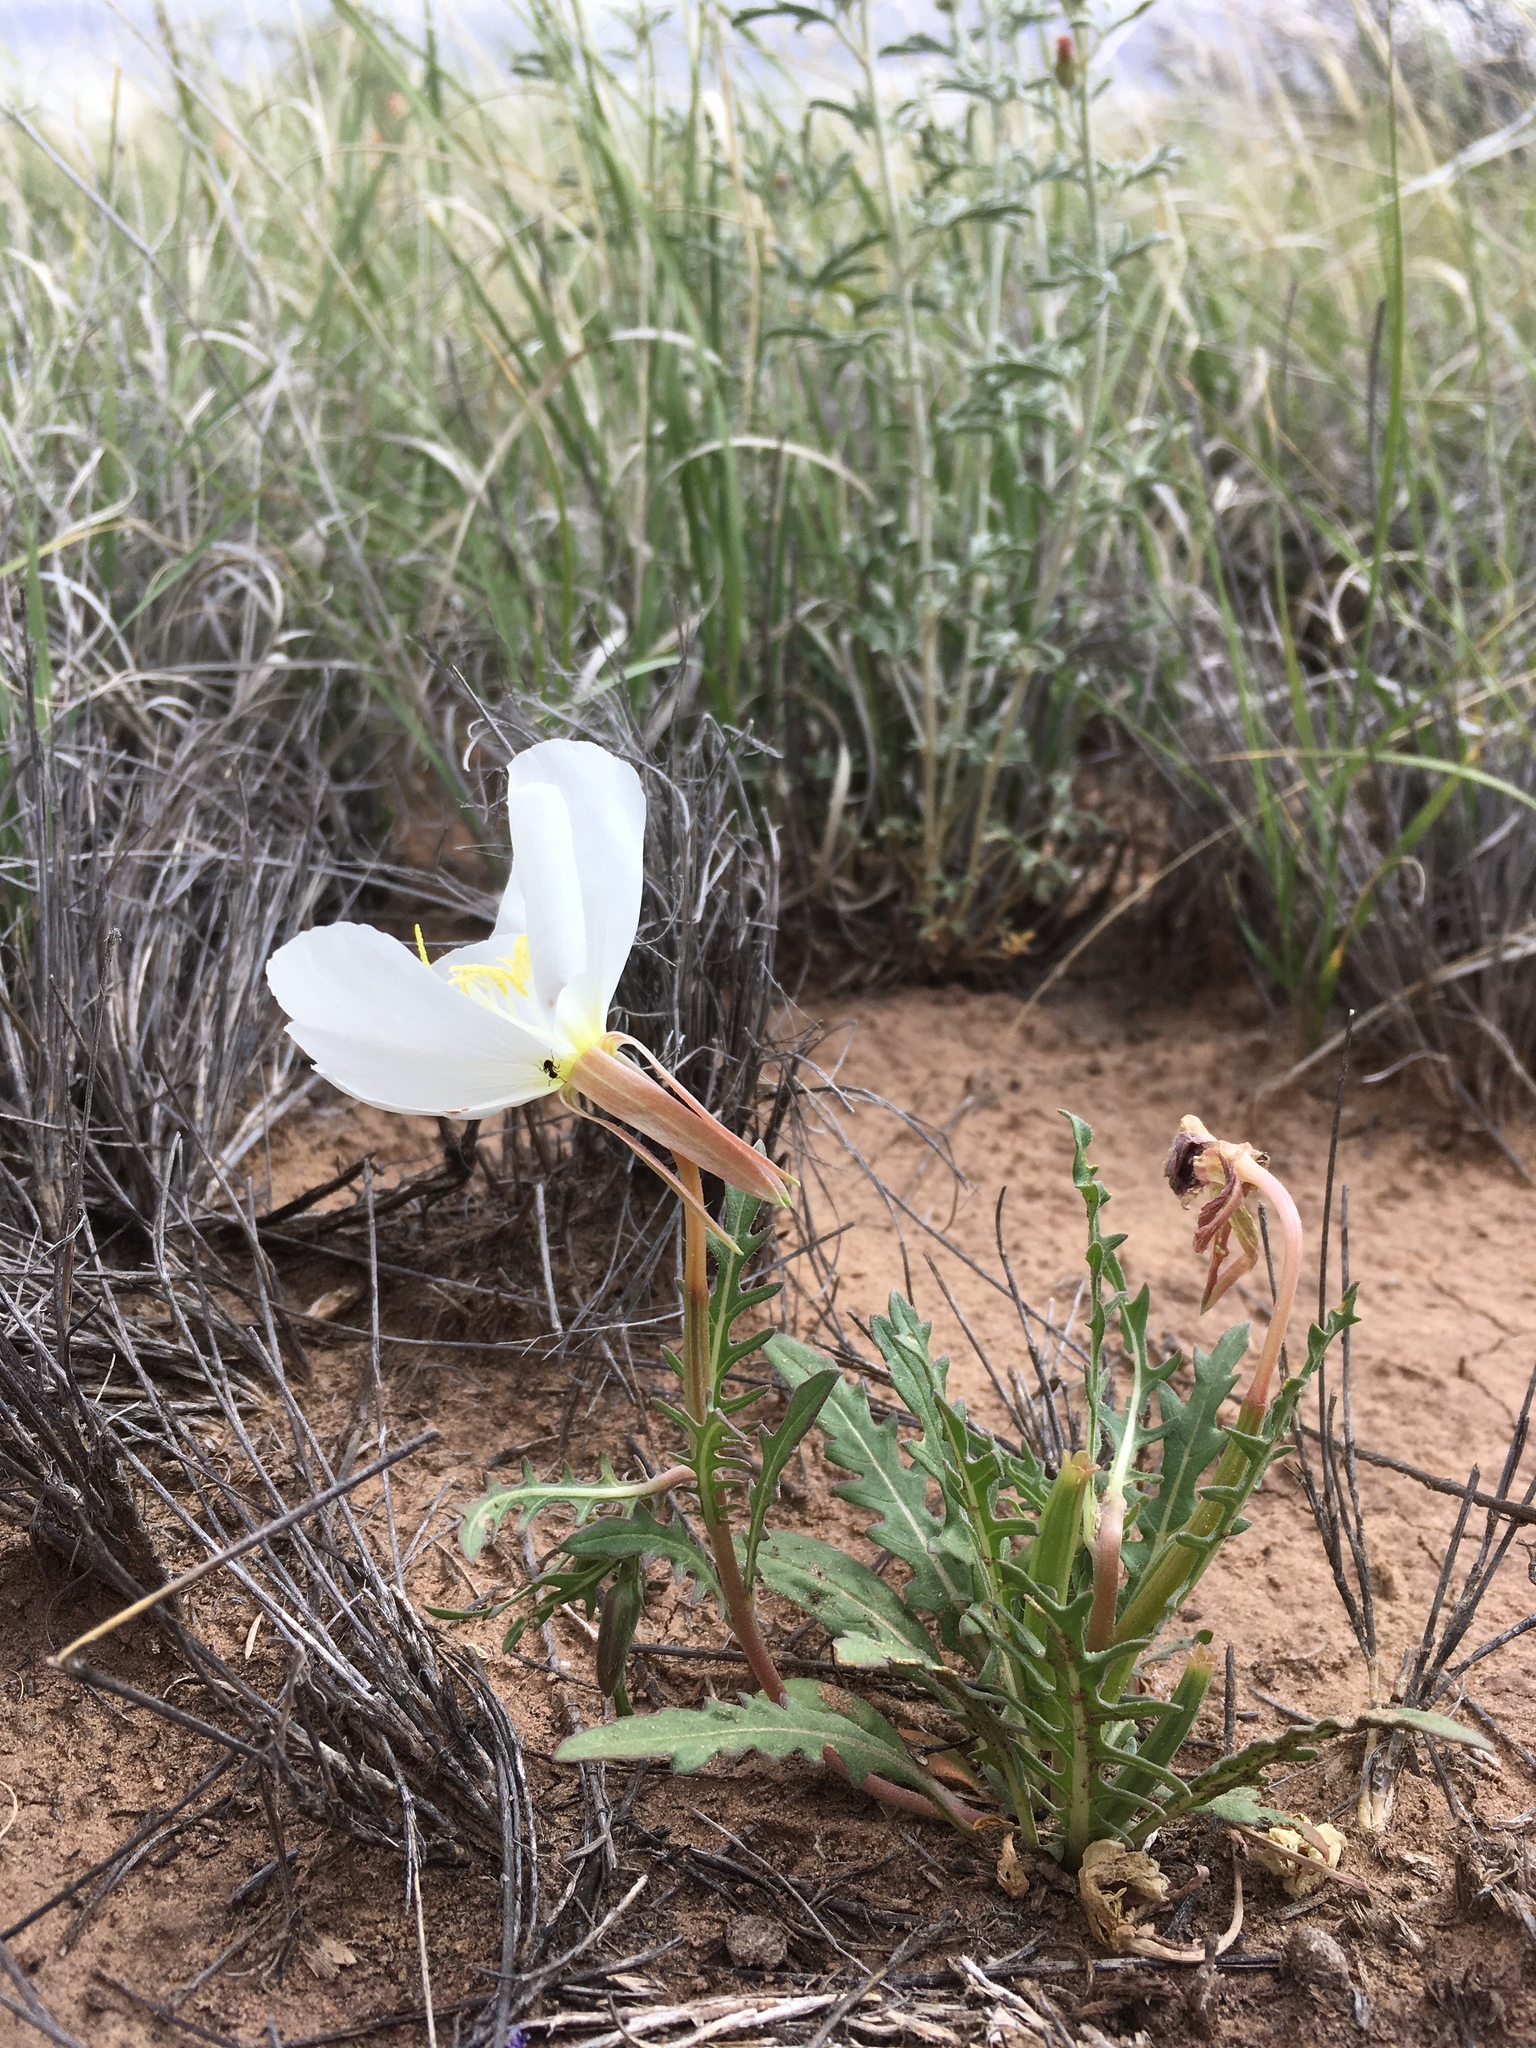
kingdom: Plantae
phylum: Tracheophyta
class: Magnoliopsida
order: Myrtales
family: Onagraceae
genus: Oenothera
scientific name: Oenothera albicaulis
